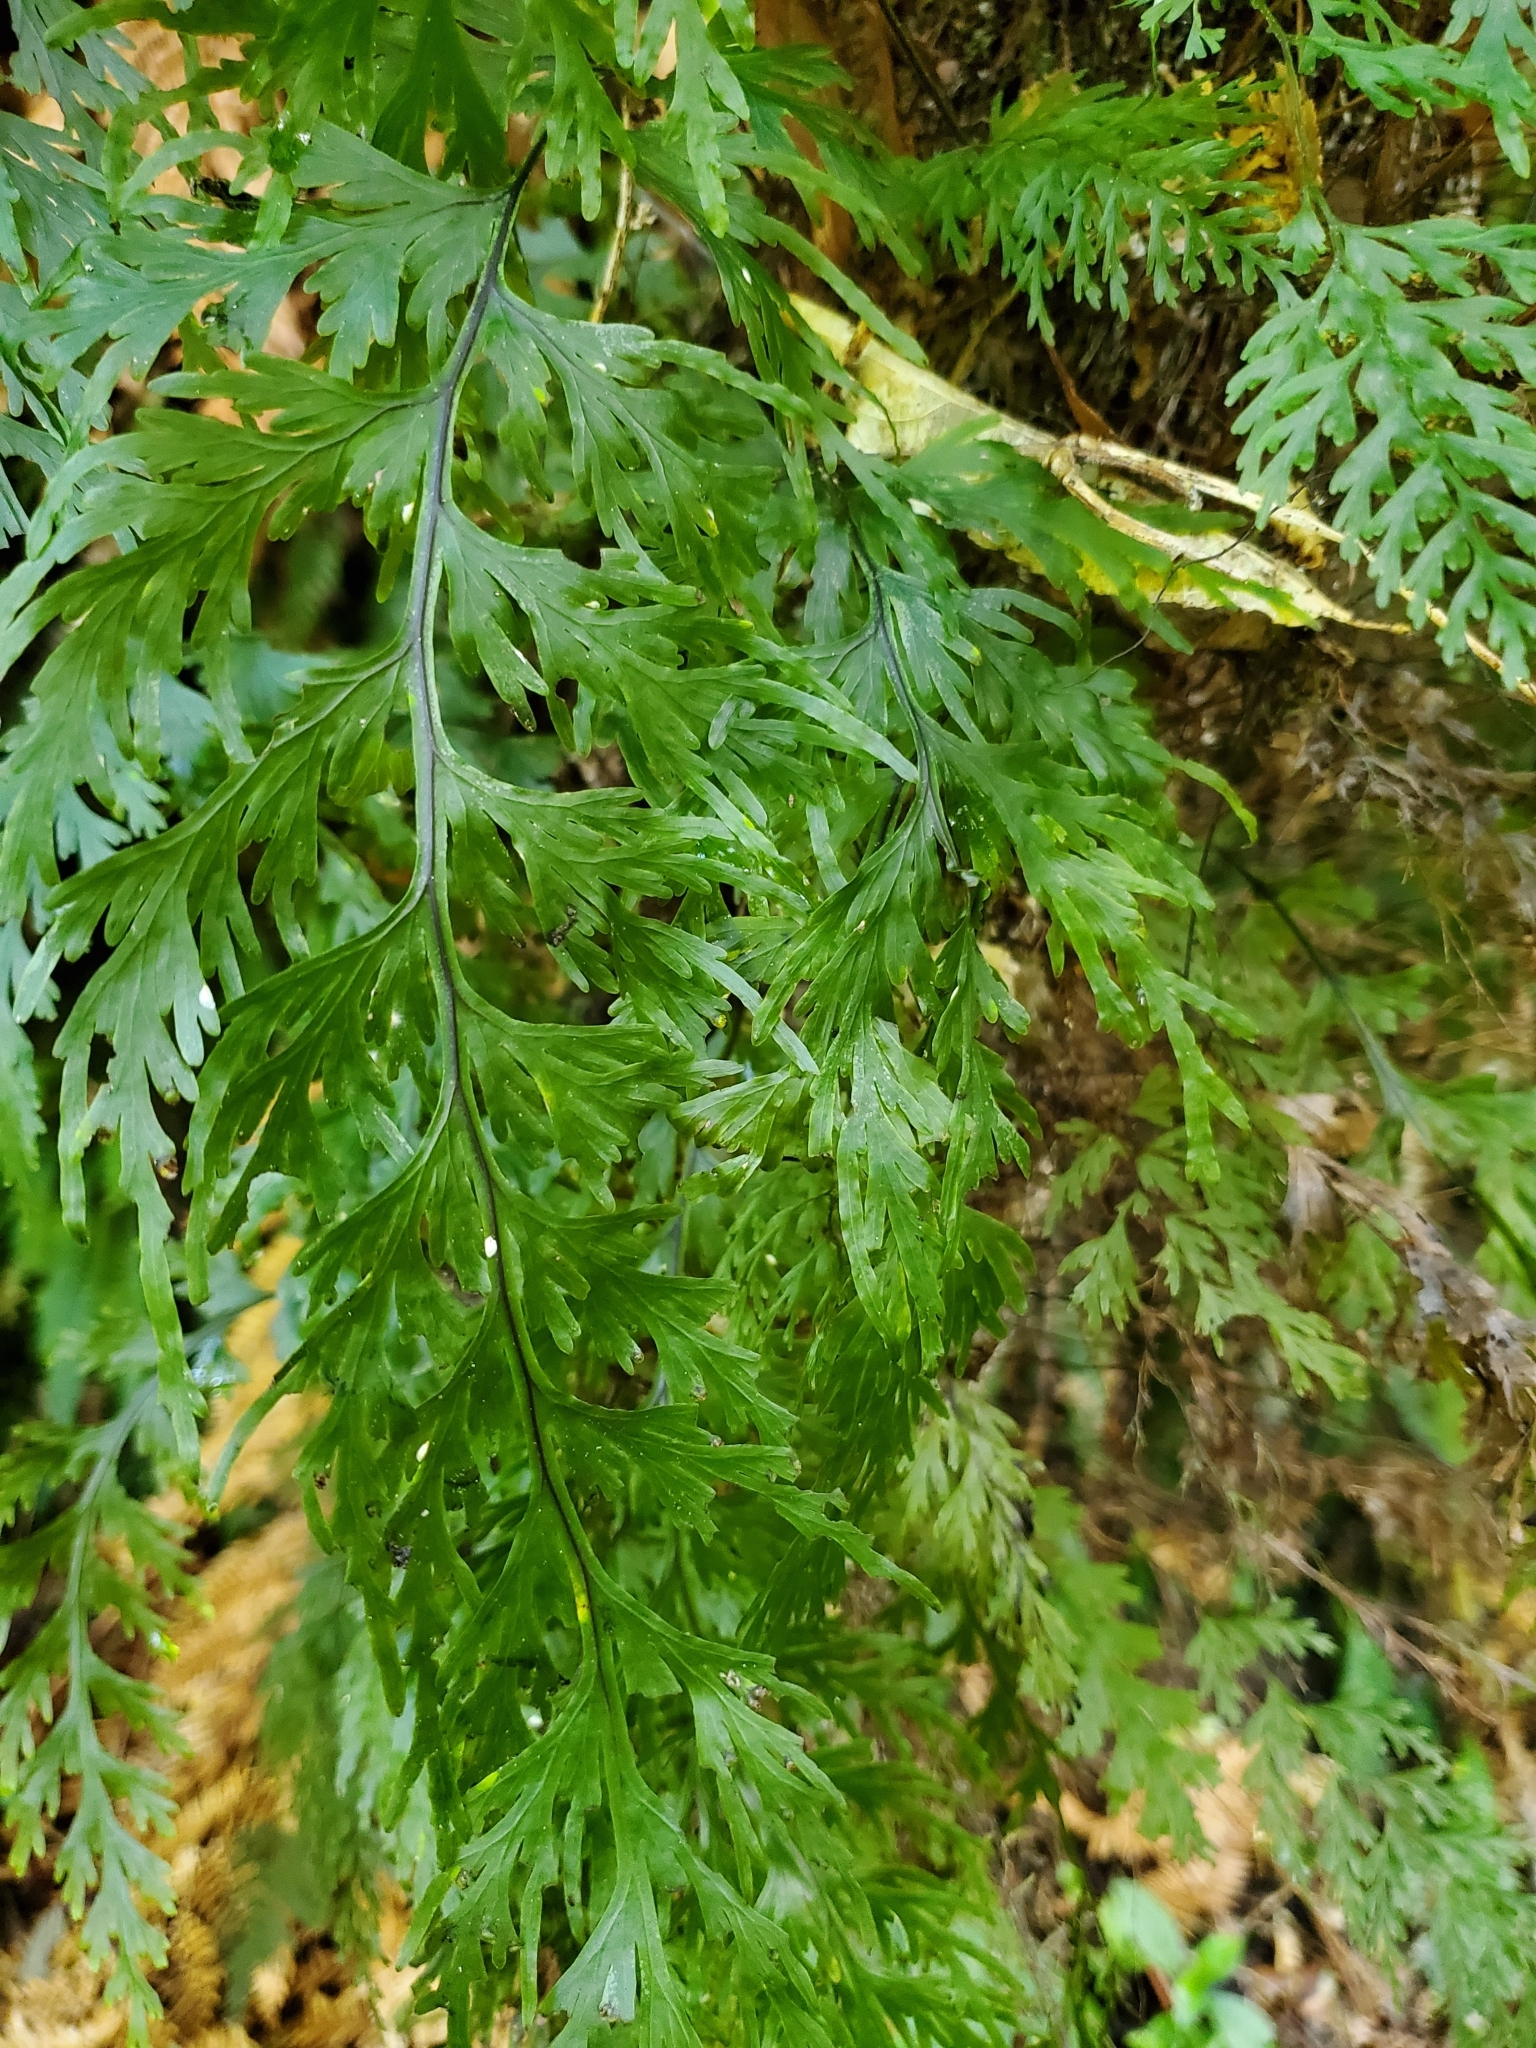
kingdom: Plantae
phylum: Tracheophyta
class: Polypodiopsida
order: Hymenophyllales
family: Hymenophyllaceae
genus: Hymenophyllum
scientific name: Hymenophyllum dilatatum
